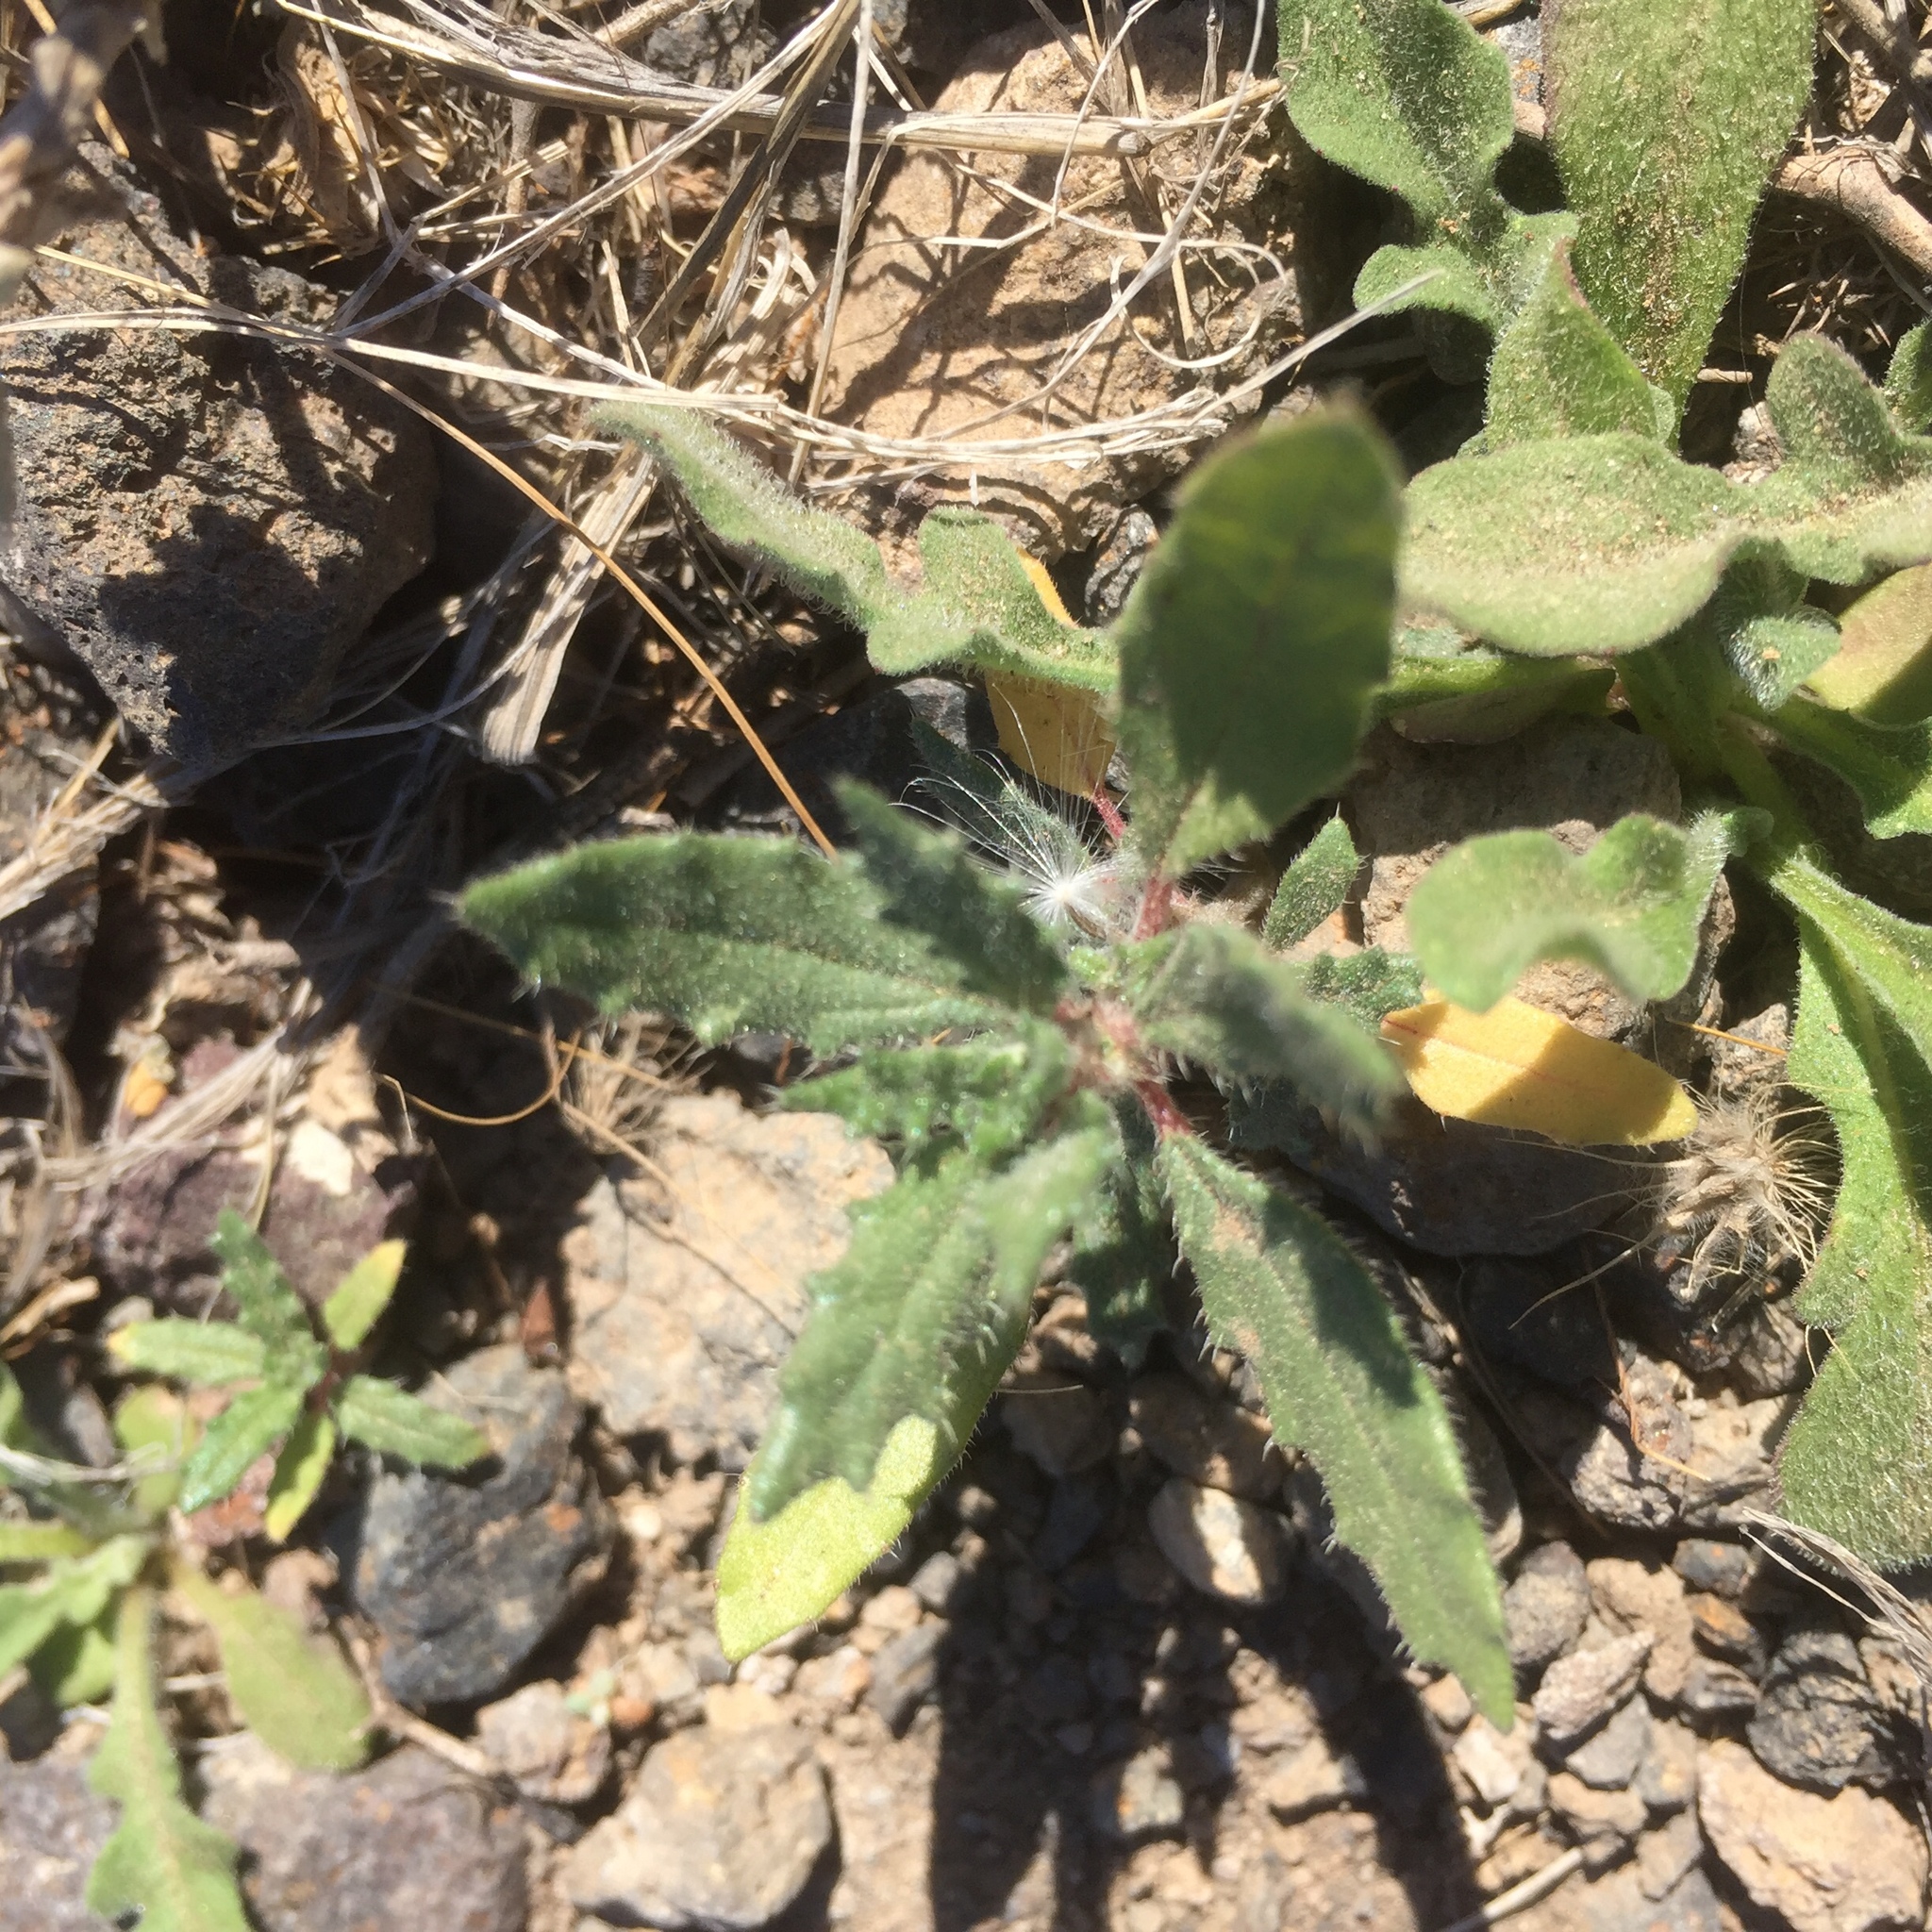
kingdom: Plantae
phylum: Tracheophyta
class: Magnoliopsida
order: Rosales
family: Urticaceae
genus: Forsskaolea
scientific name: Forsskaolea angustifolia
